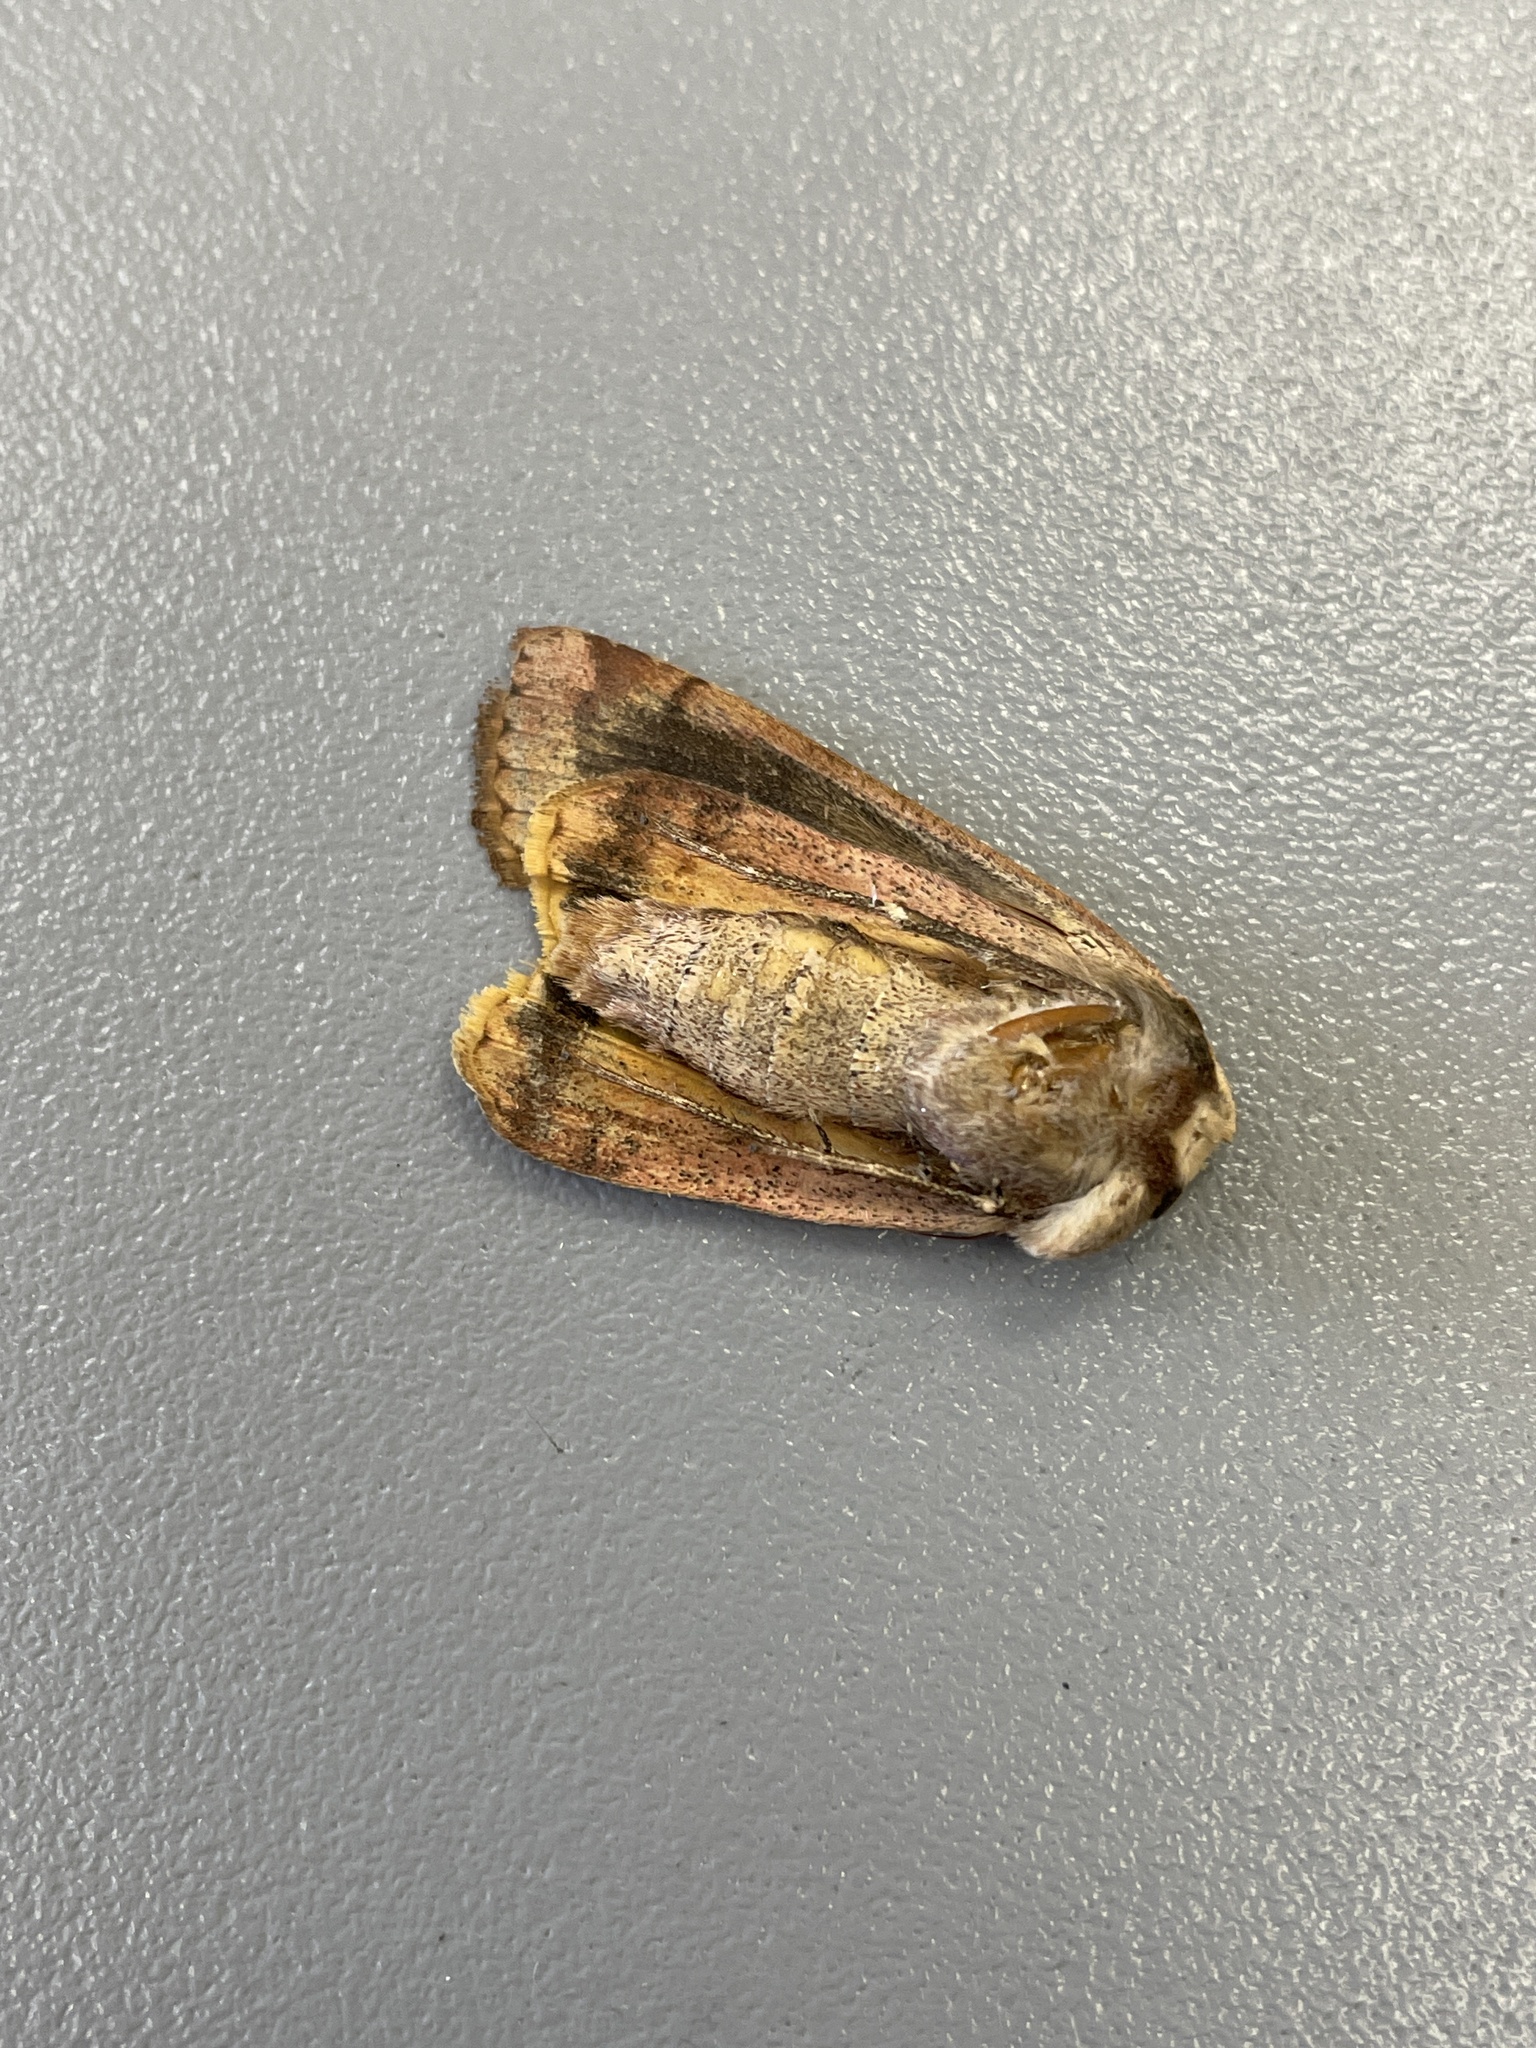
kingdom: Animalia
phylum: Arthropoda
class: Insecta
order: Lepidoptera
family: Noctuidae
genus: Noctua
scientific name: Noctua pronuba
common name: Large yellow underwing
